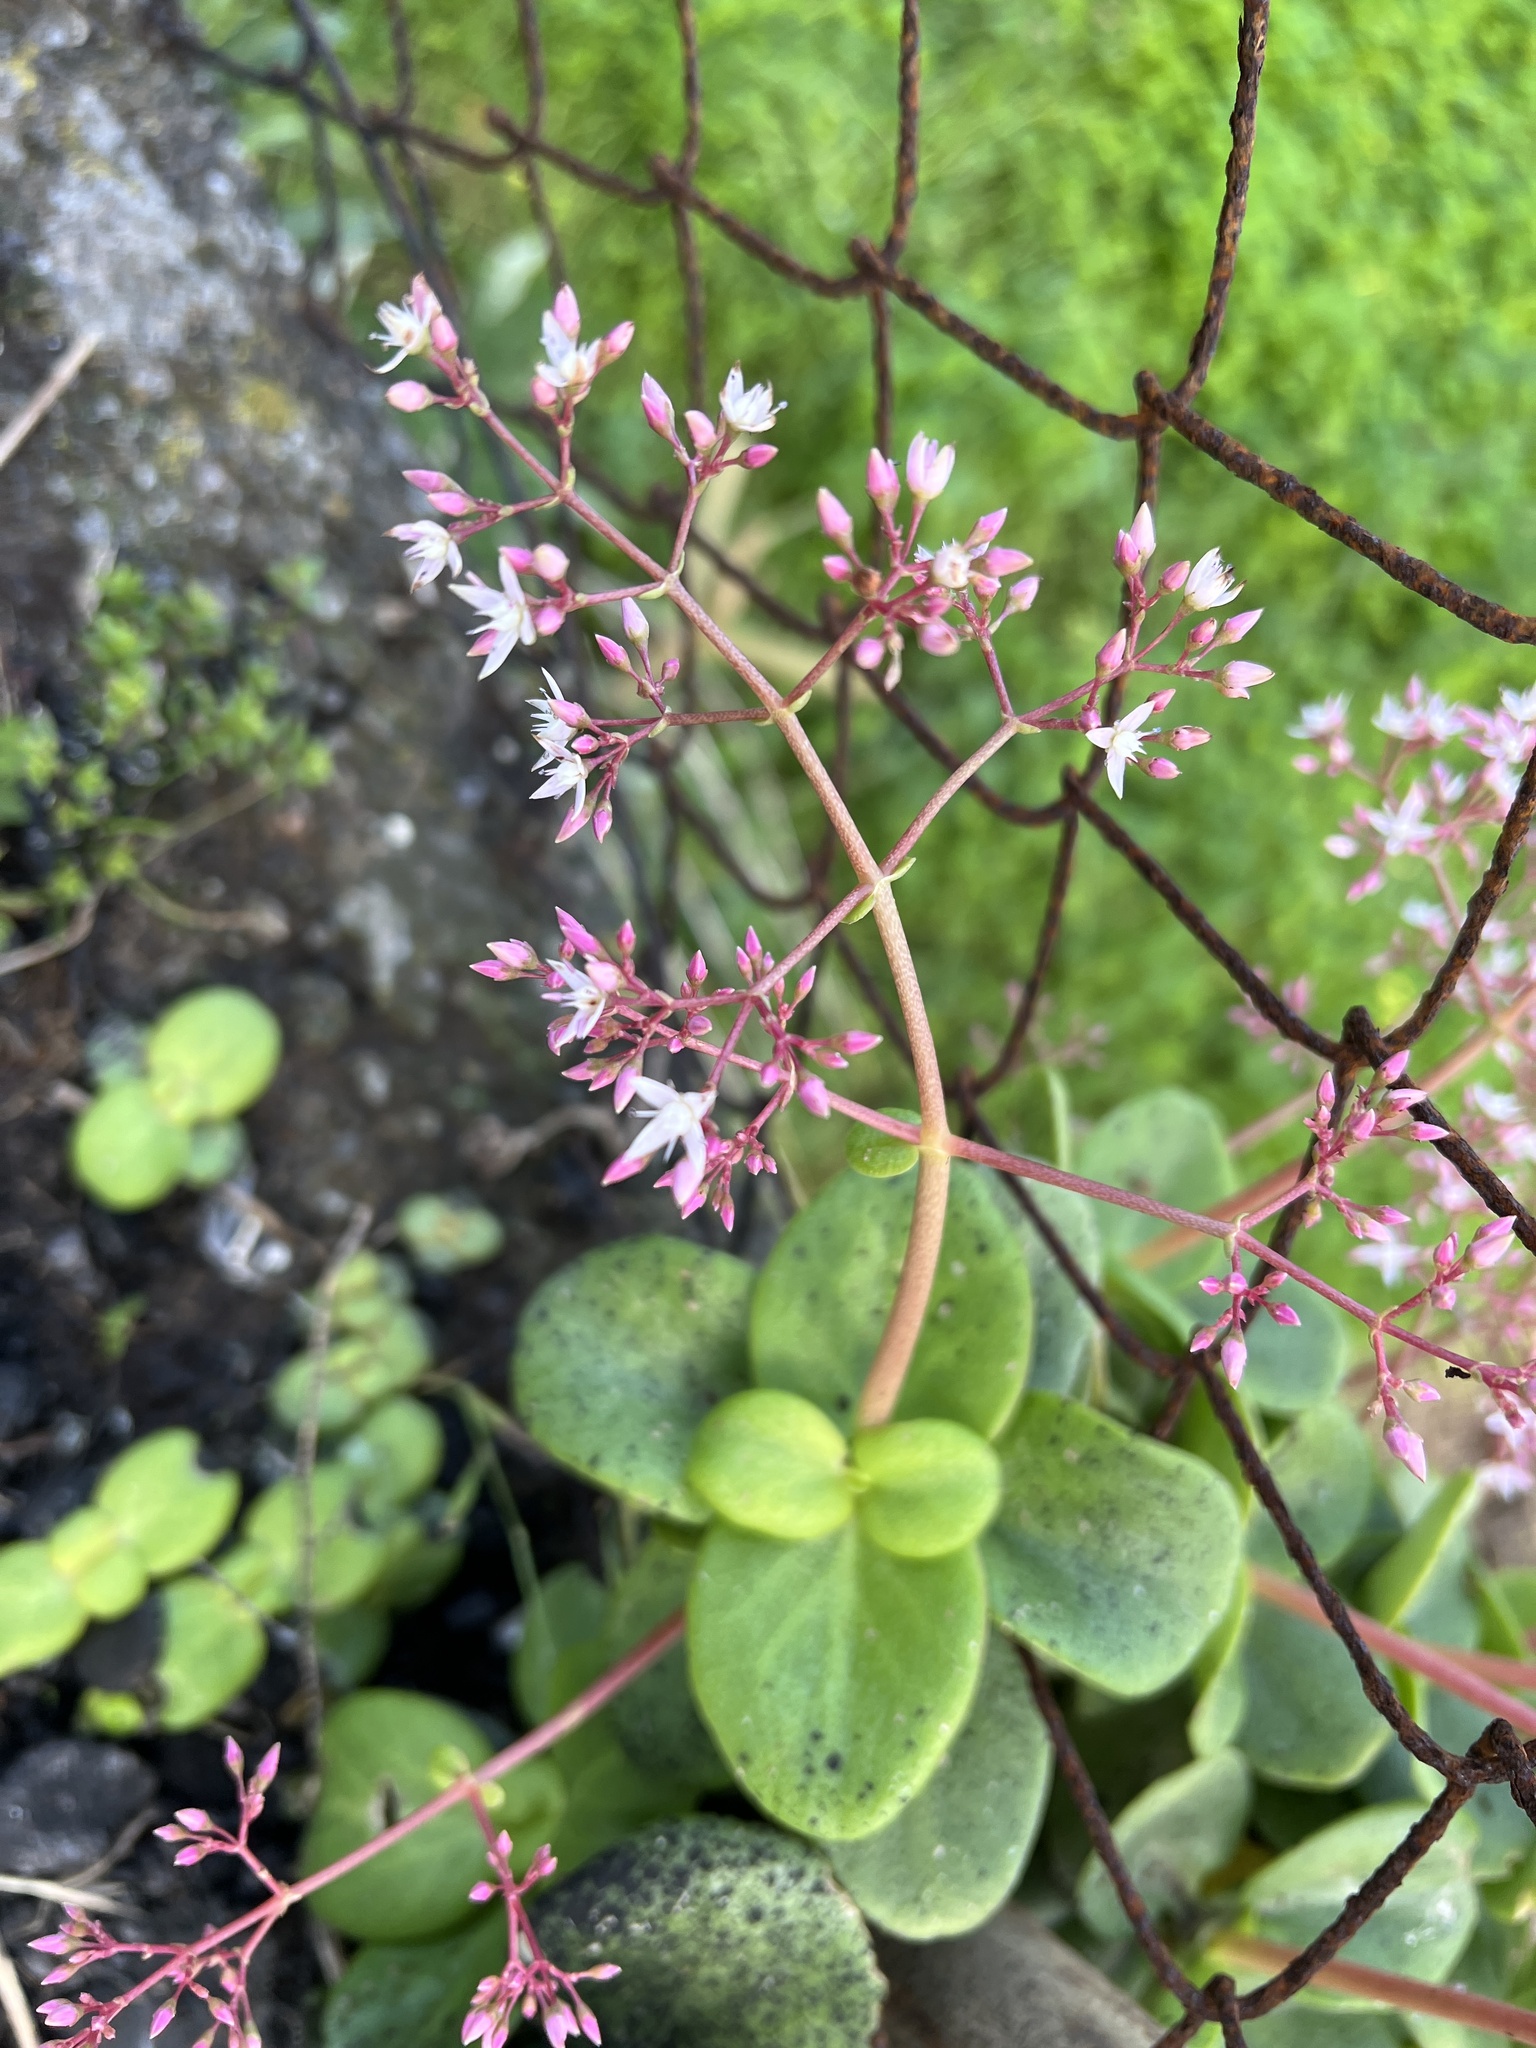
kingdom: Plantae
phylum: Tracheophyta
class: Magnoliopsida
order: Saxifragales
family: Crassulaceae
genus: Crassula
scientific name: Crassula multicava
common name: Cape province pygmyweed
